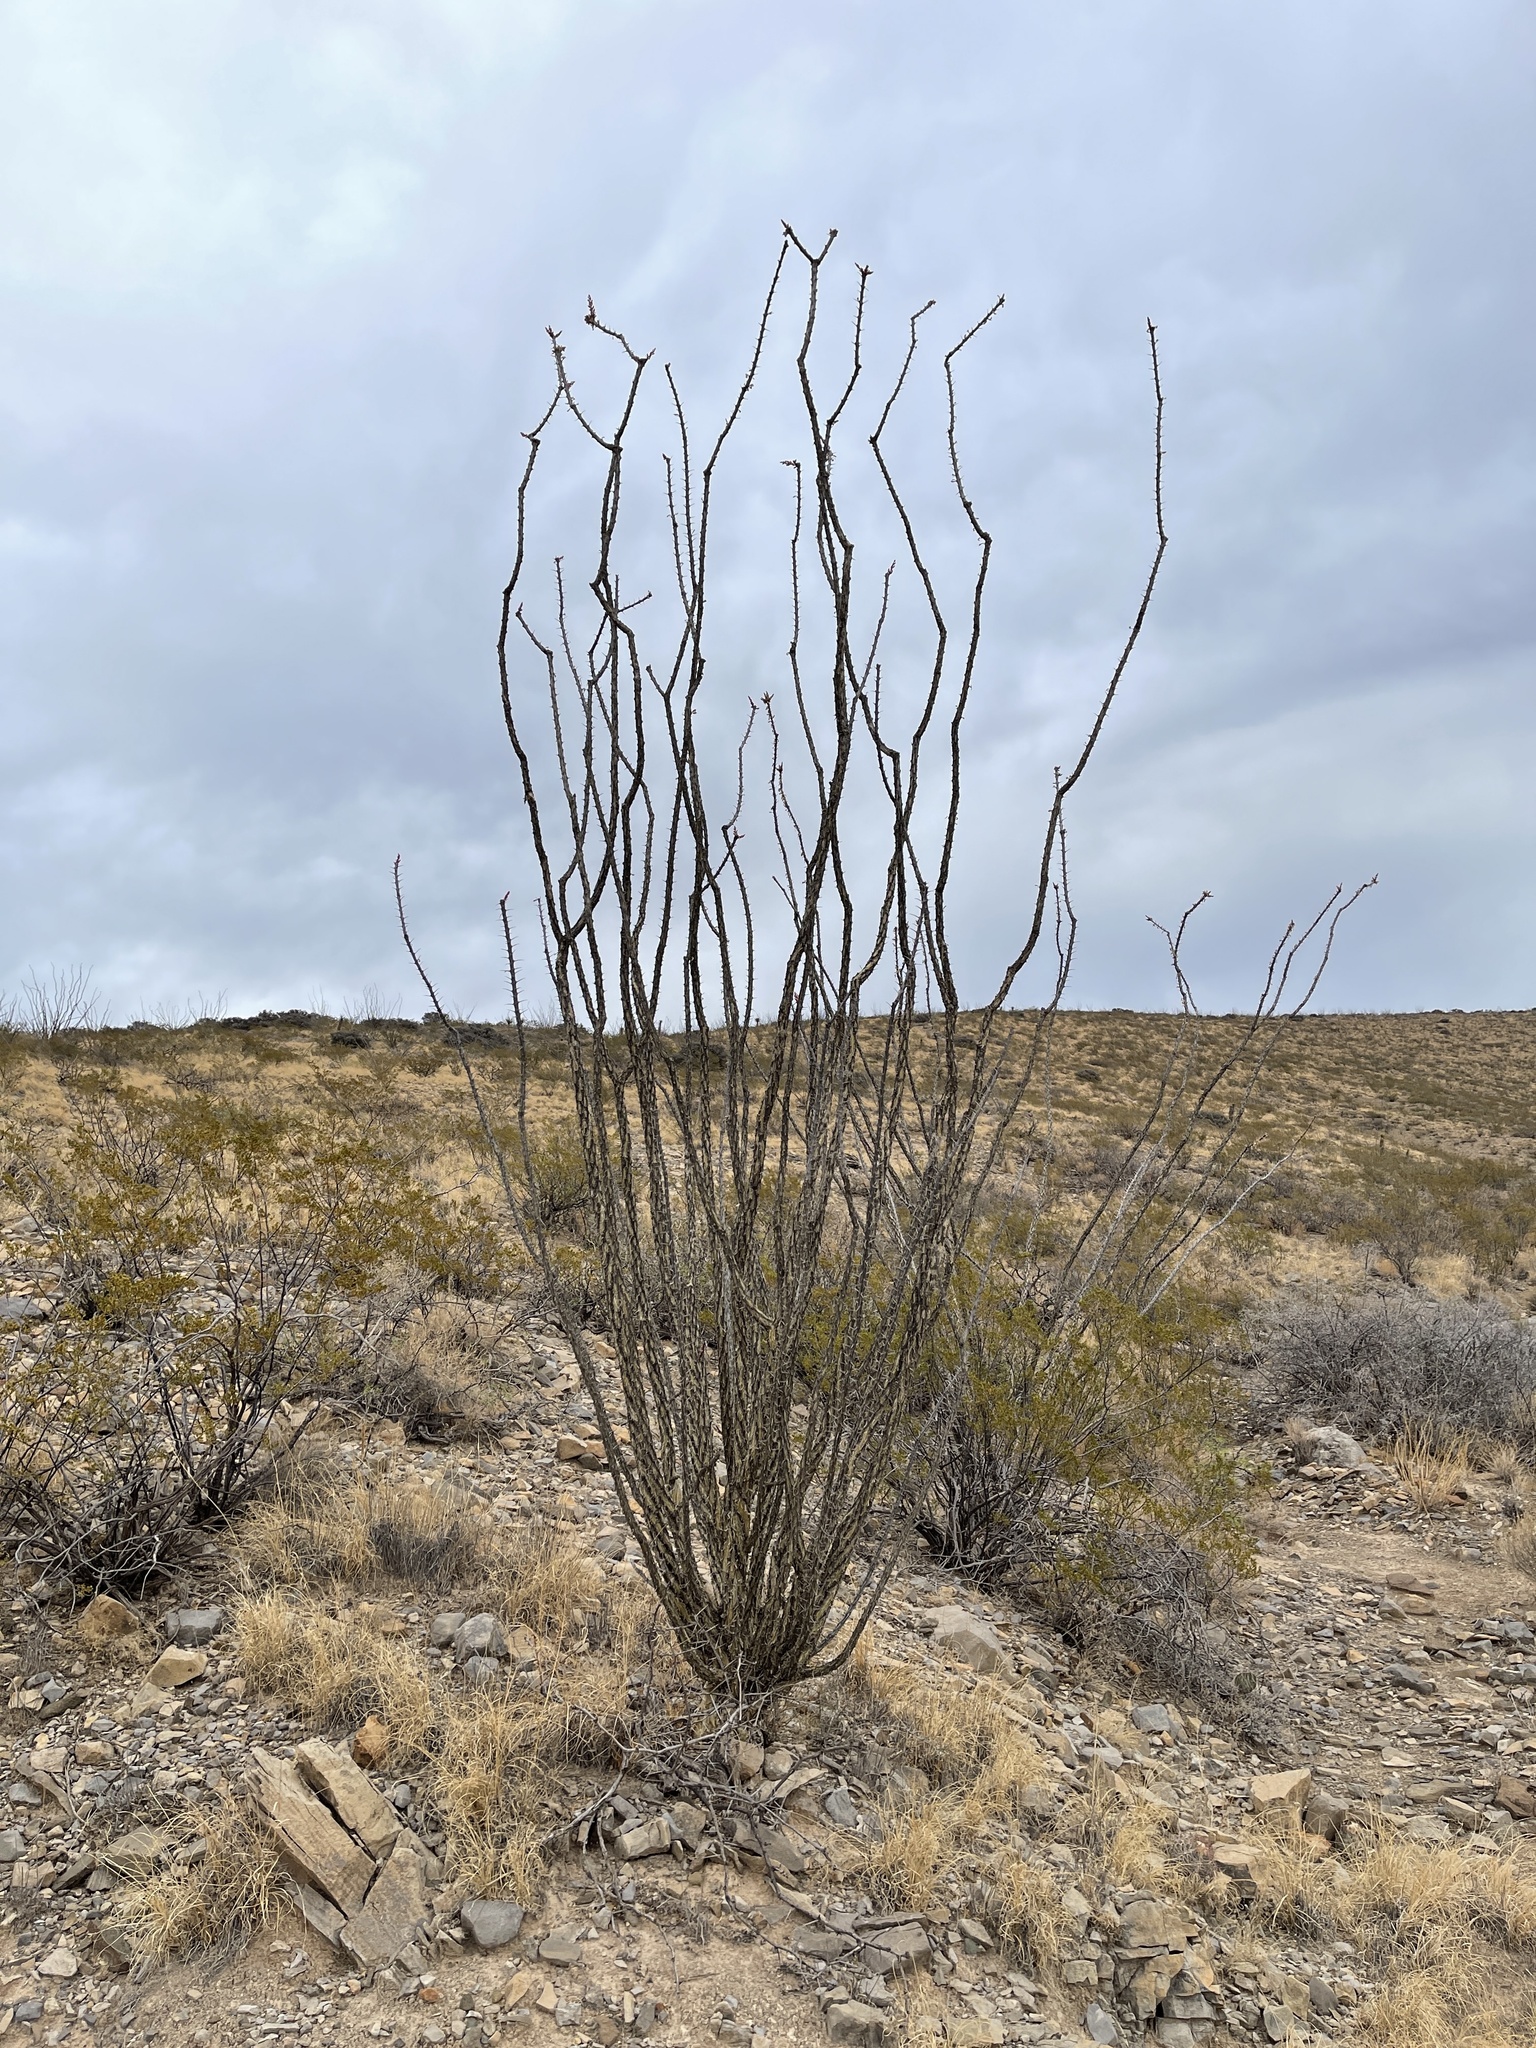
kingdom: Plantae
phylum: Tracheophyta
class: Magnoliopsida
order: Ericales
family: Fouquieriaceae
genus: Fouquieria
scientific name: Fouquieria splendens
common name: Vine-cactus
